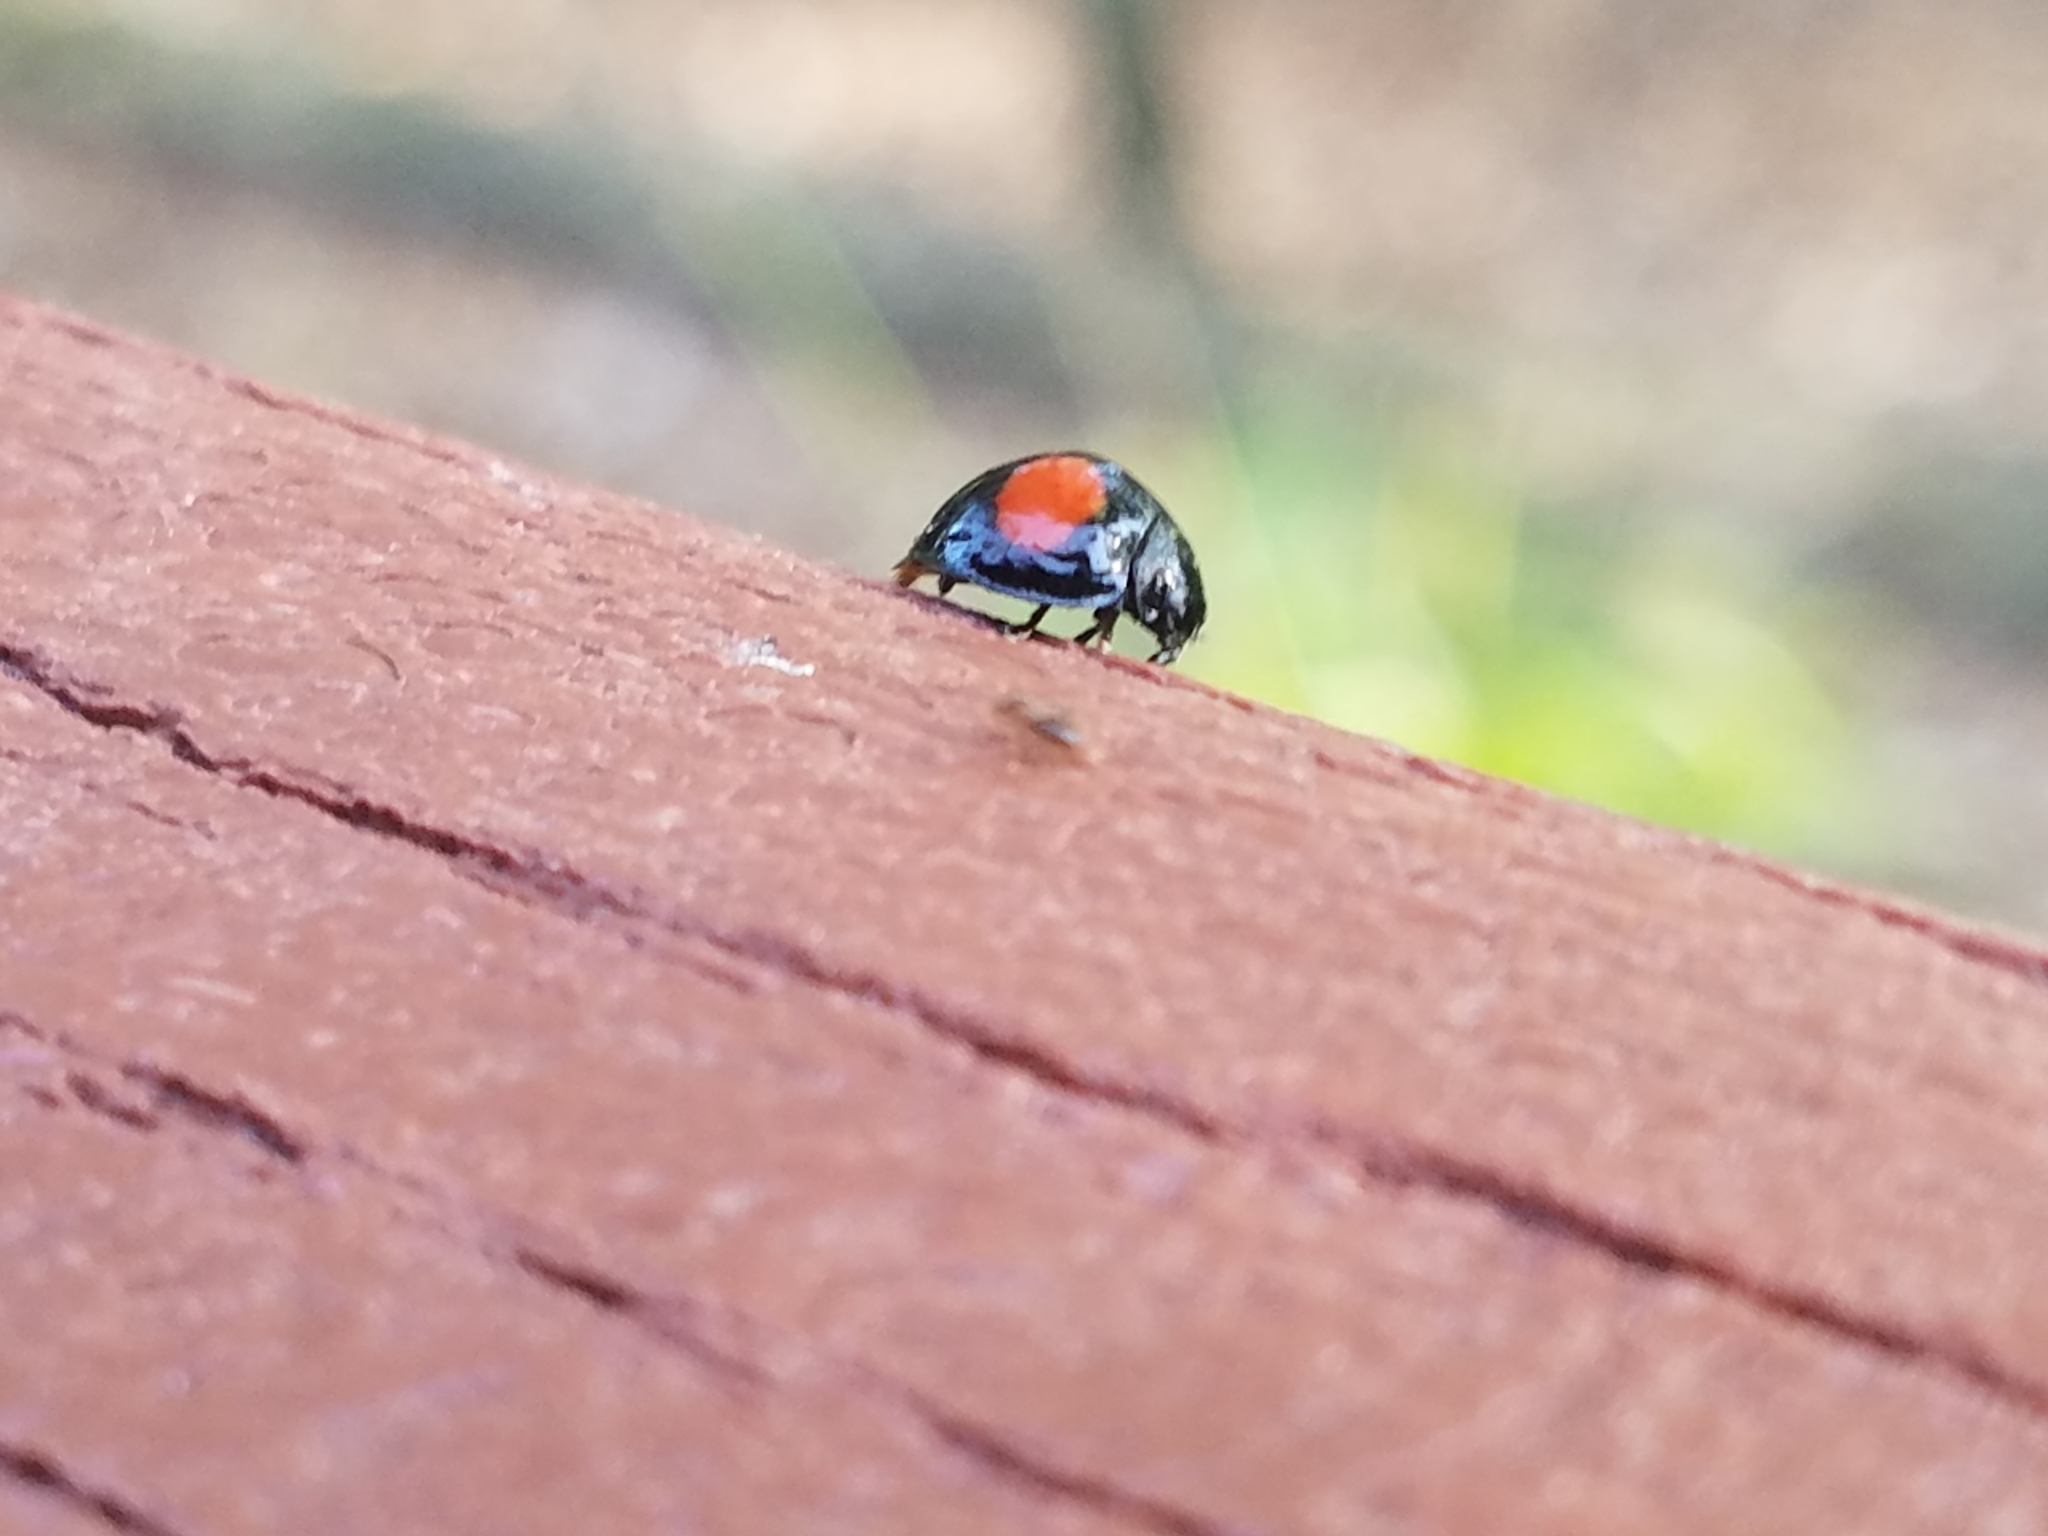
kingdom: Animalia
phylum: Arthropoda
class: Insecta
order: Coleoptera
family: Coccinellidae
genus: Chilocorus
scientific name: Chilocorus cacti
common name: Cactus lady beetle
